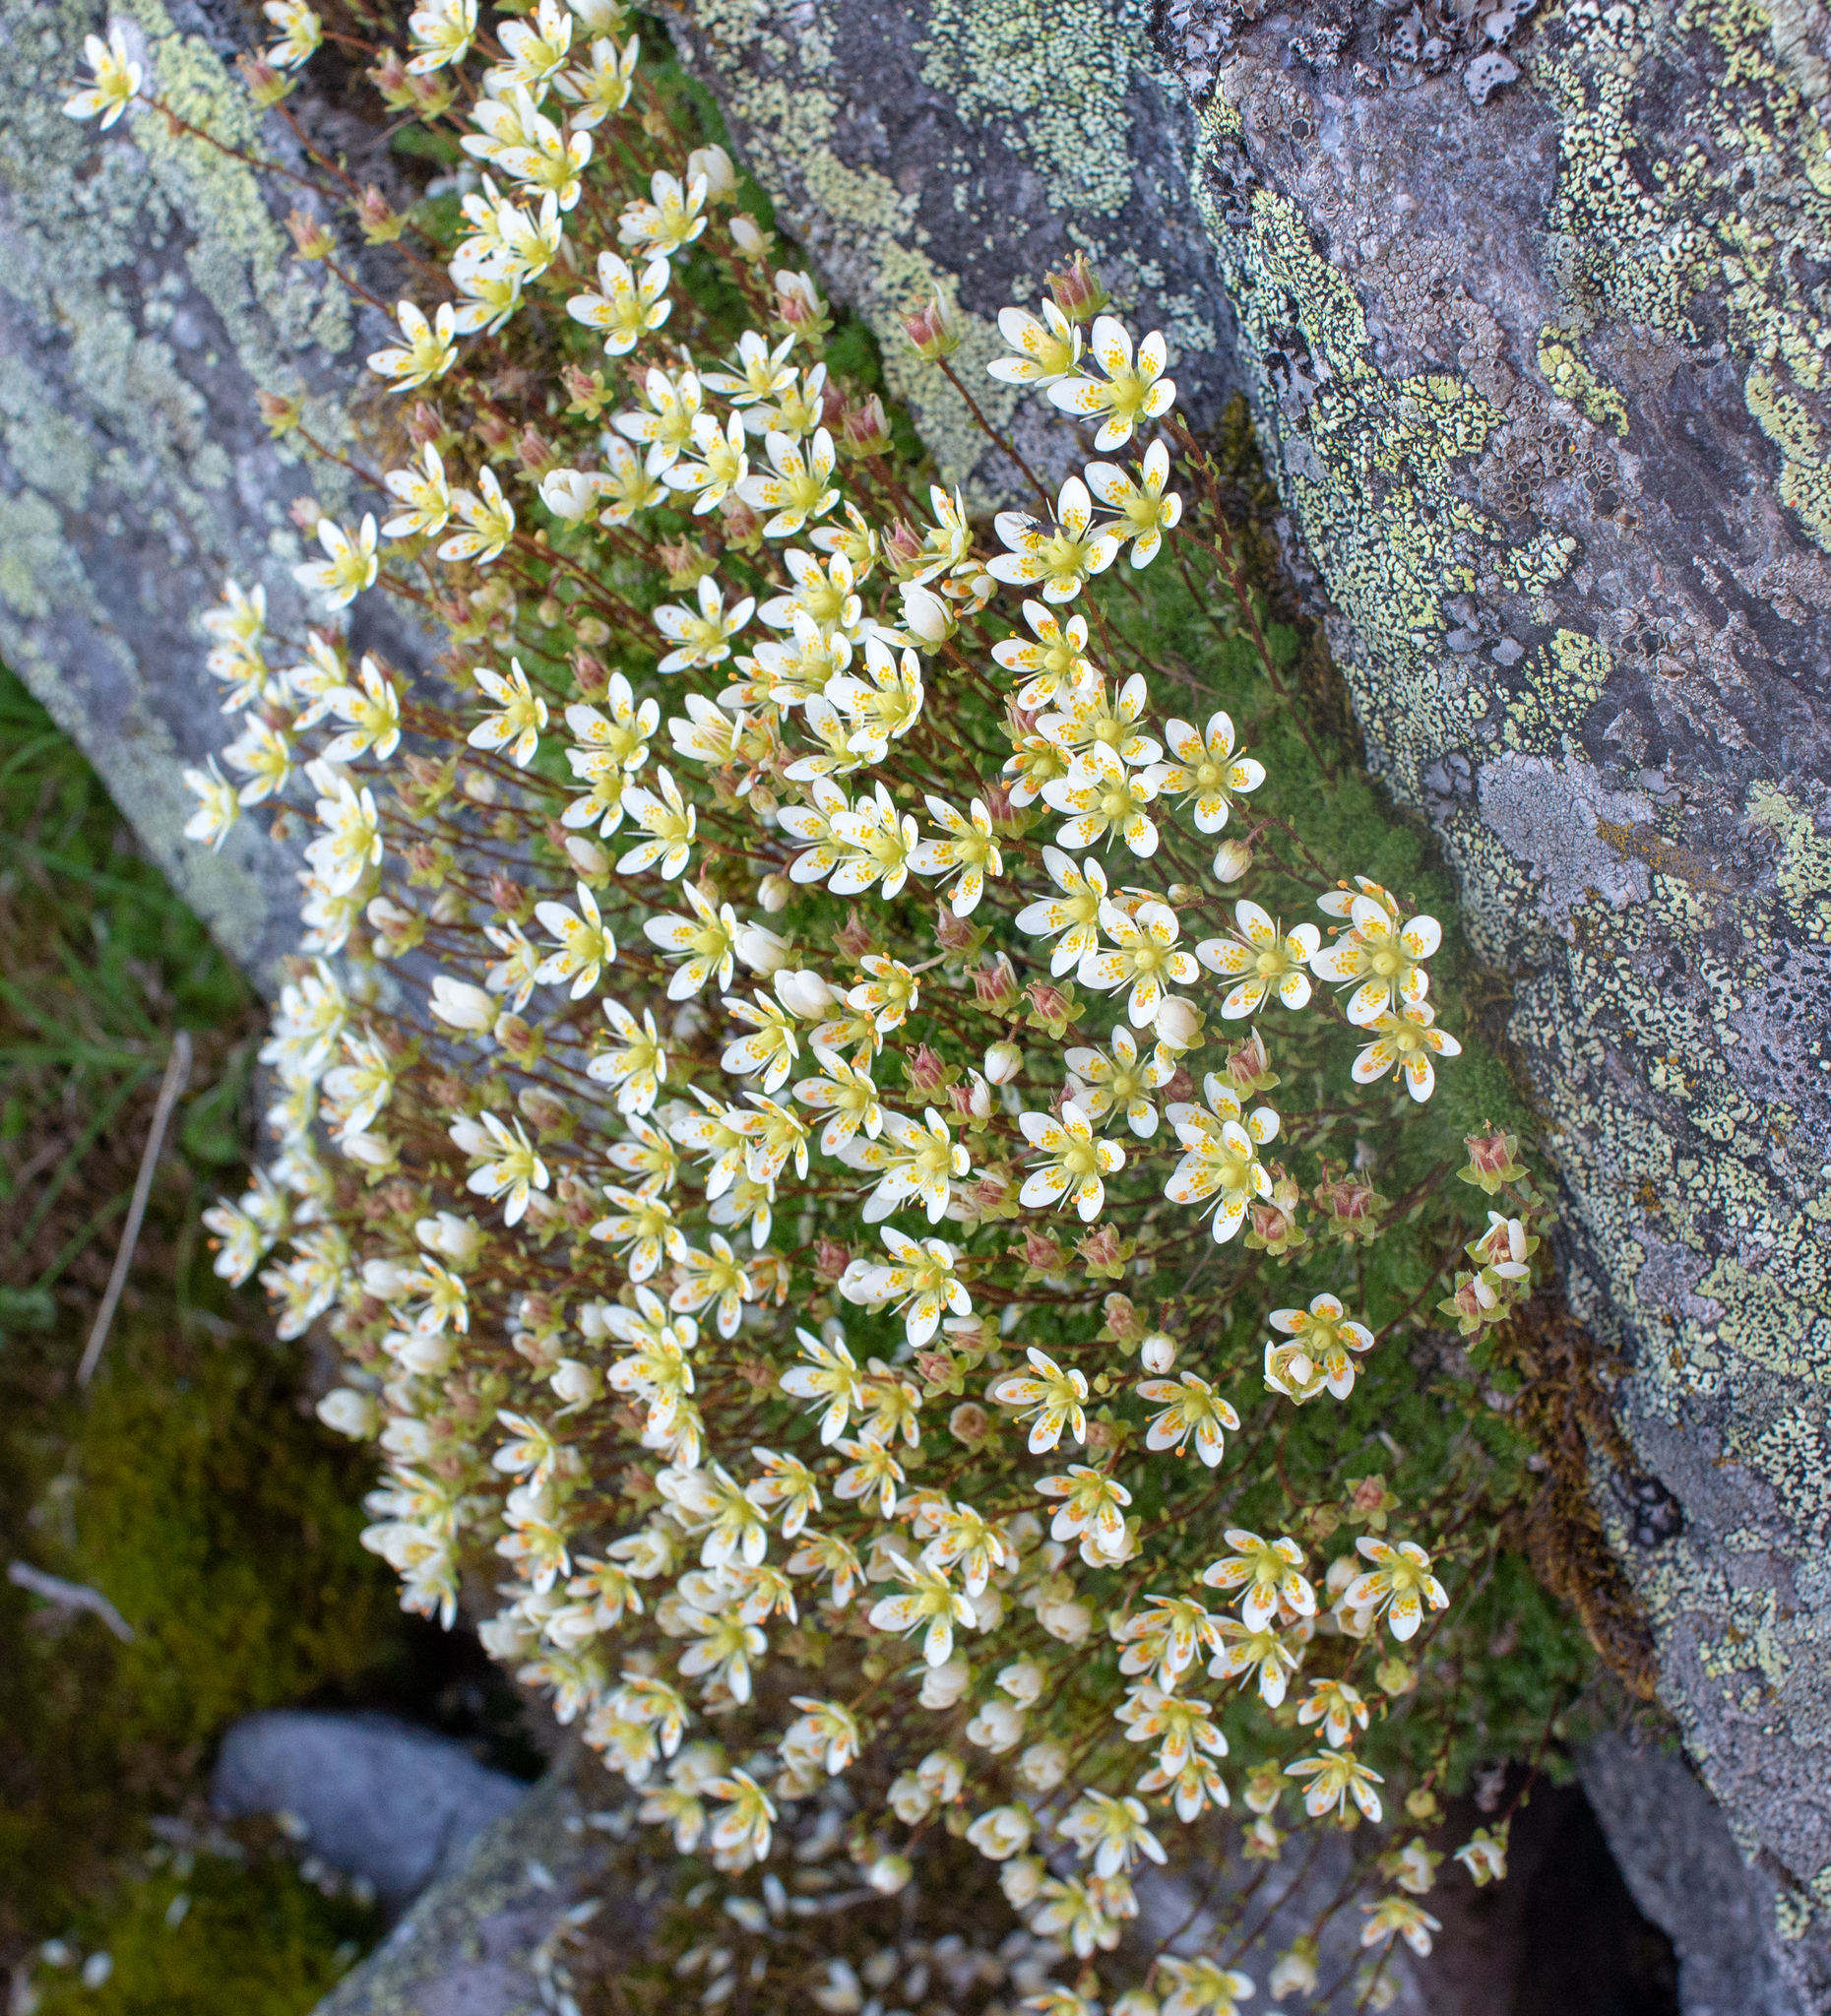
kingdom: Plantae
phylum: Tracheophyta
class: Magnoliopsida
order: Saxifragales
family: Saxifragaceae
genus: Saxifraga
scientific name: Saxifraga bryoides
